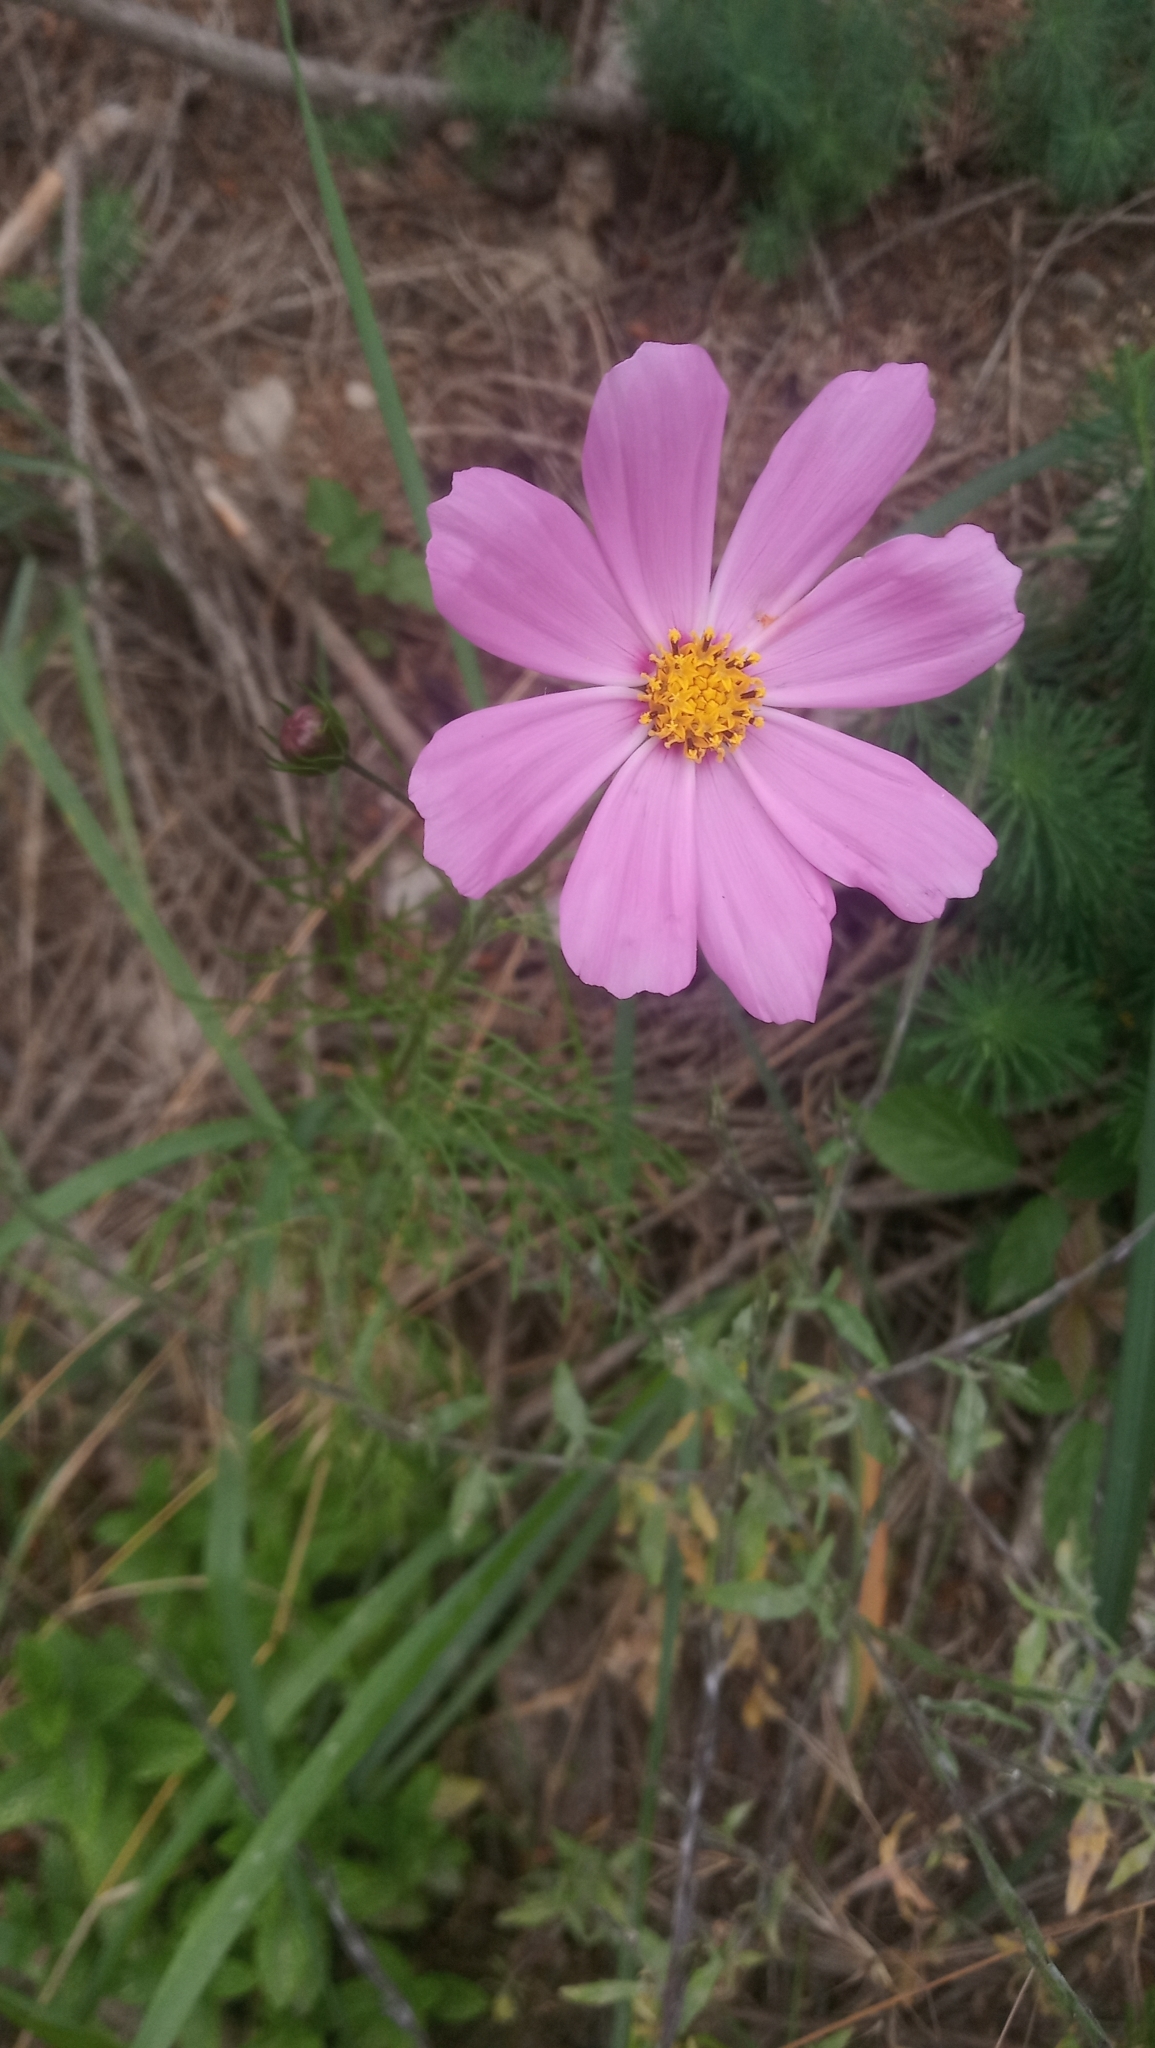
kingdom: Plantae
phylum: Tracheophyta
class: Magnoliopsida
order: Asterales
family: Asteraceae
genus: Cosmos
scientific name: Cosmos bipinnatus
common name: Garden cosmos
